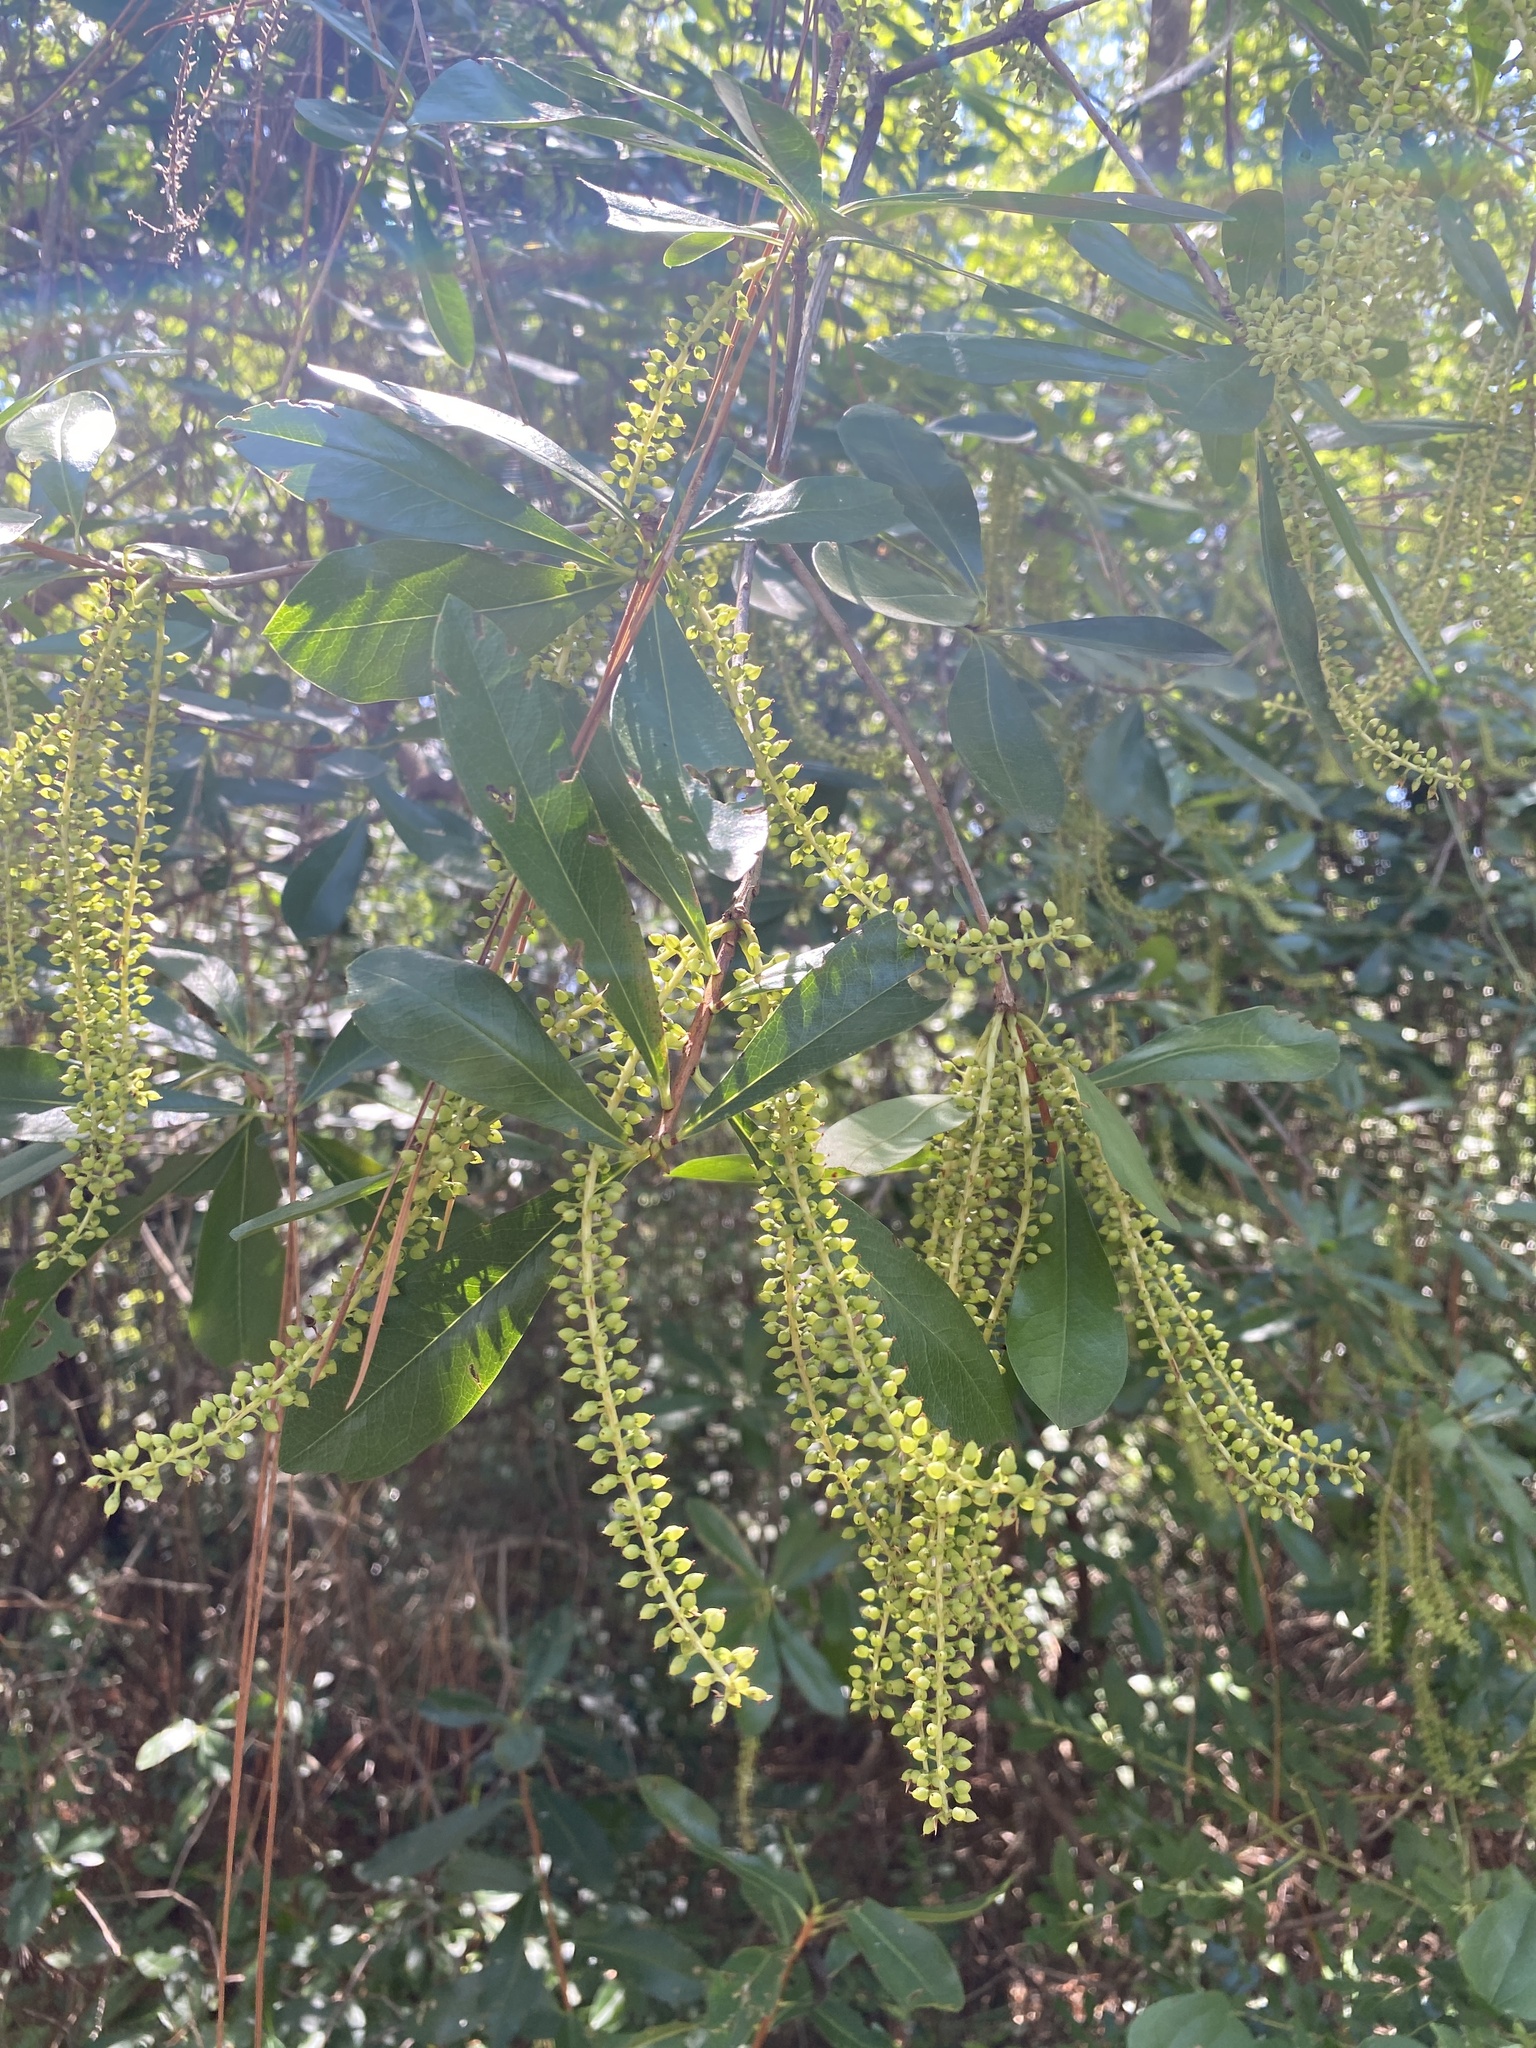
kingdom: Plantae
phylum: Tracheophyta
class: Magnoliopsida
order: Ericales
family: Cyrillaceae
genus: Cyrilla
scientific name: Cyrilla racemiflora
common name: Black titi
